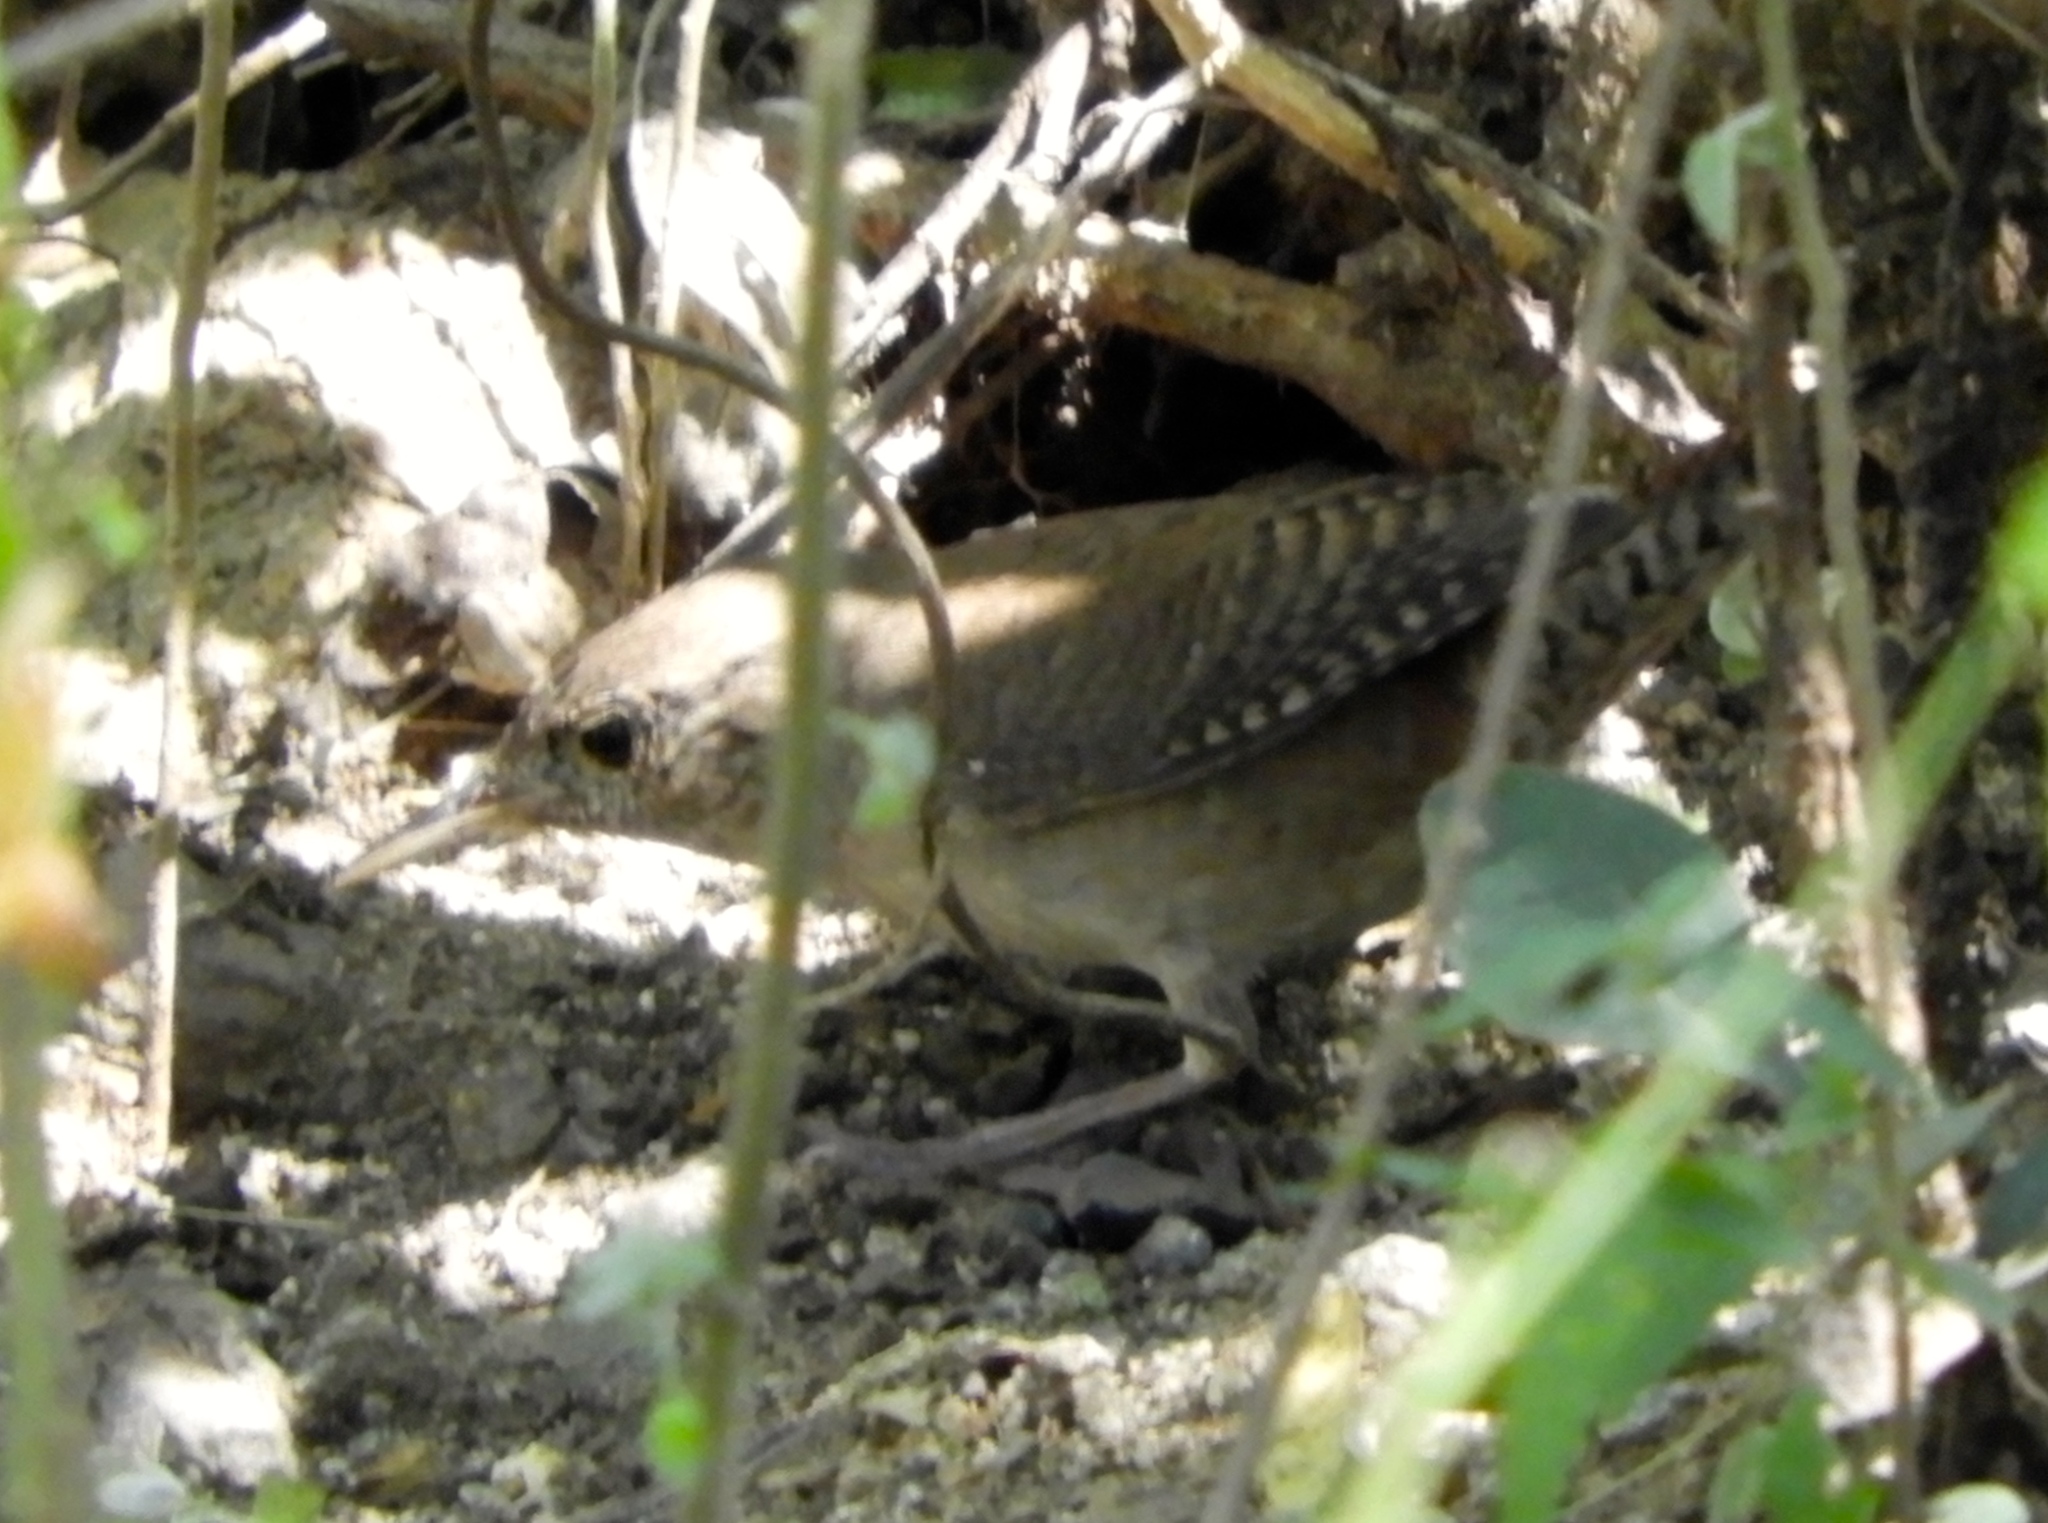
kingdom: Animalia
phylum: Chordata
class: Aves
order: Passeriformes
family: Troglodytidae
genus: Troglodytes
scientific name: Troglodytes aedon
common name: House wren
